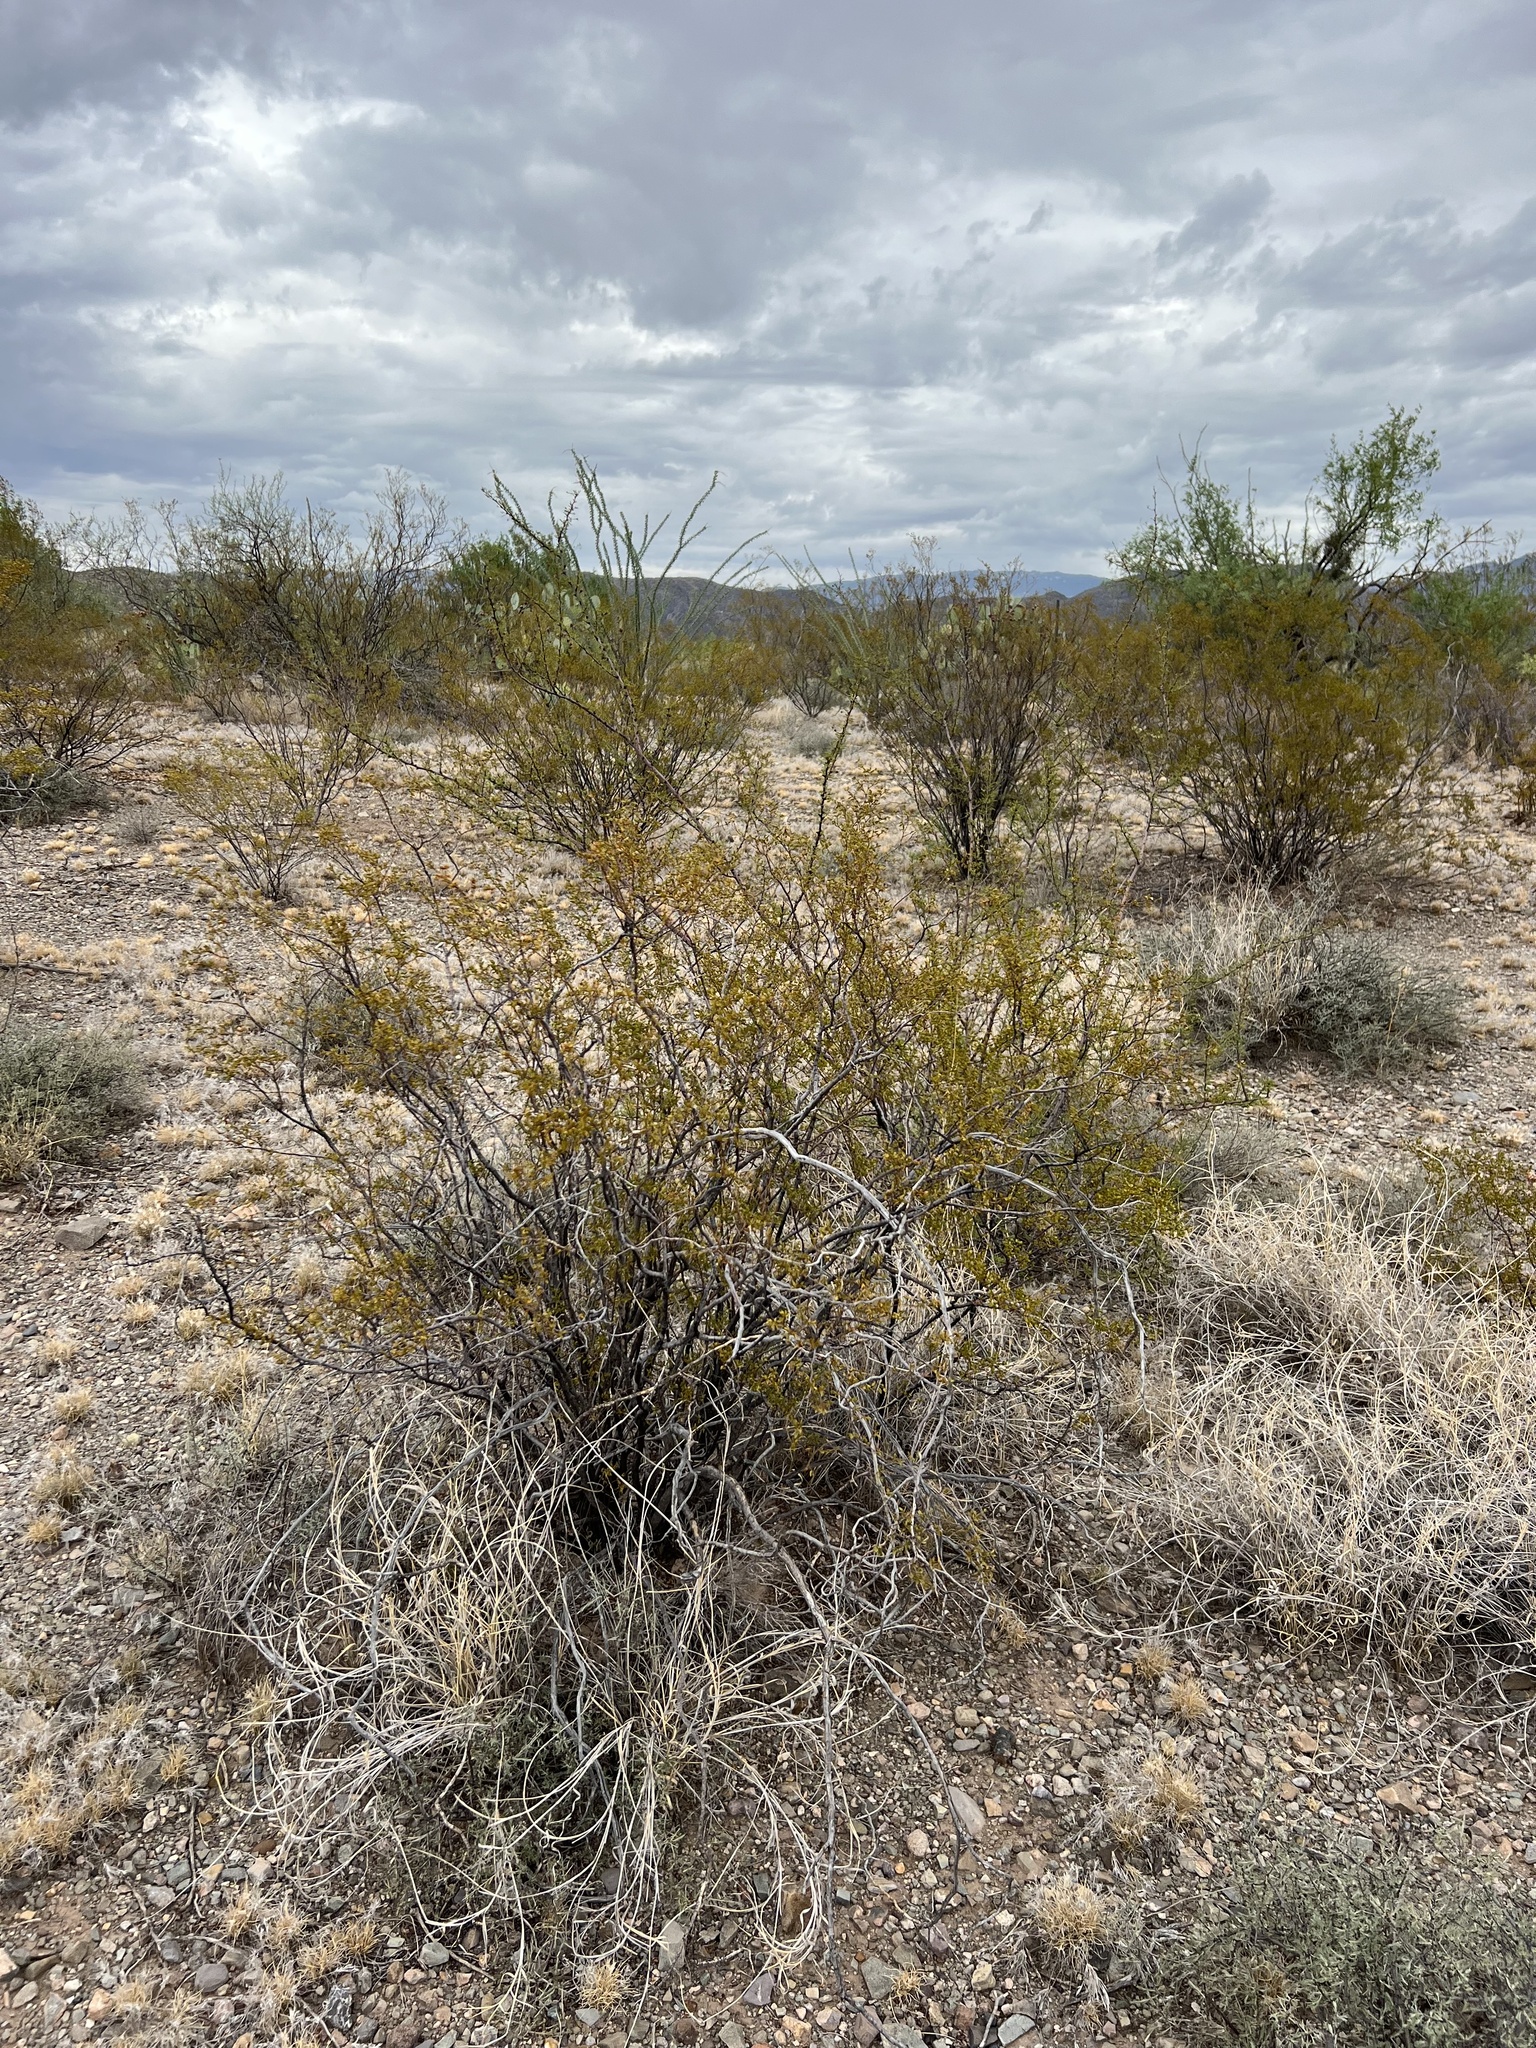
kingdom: Plantae
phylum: Tracheophyta
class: Magnoliopsida
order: Zygophyllales
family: Zygophyllaceae
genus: Larrea
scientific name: Larrea tridentata
